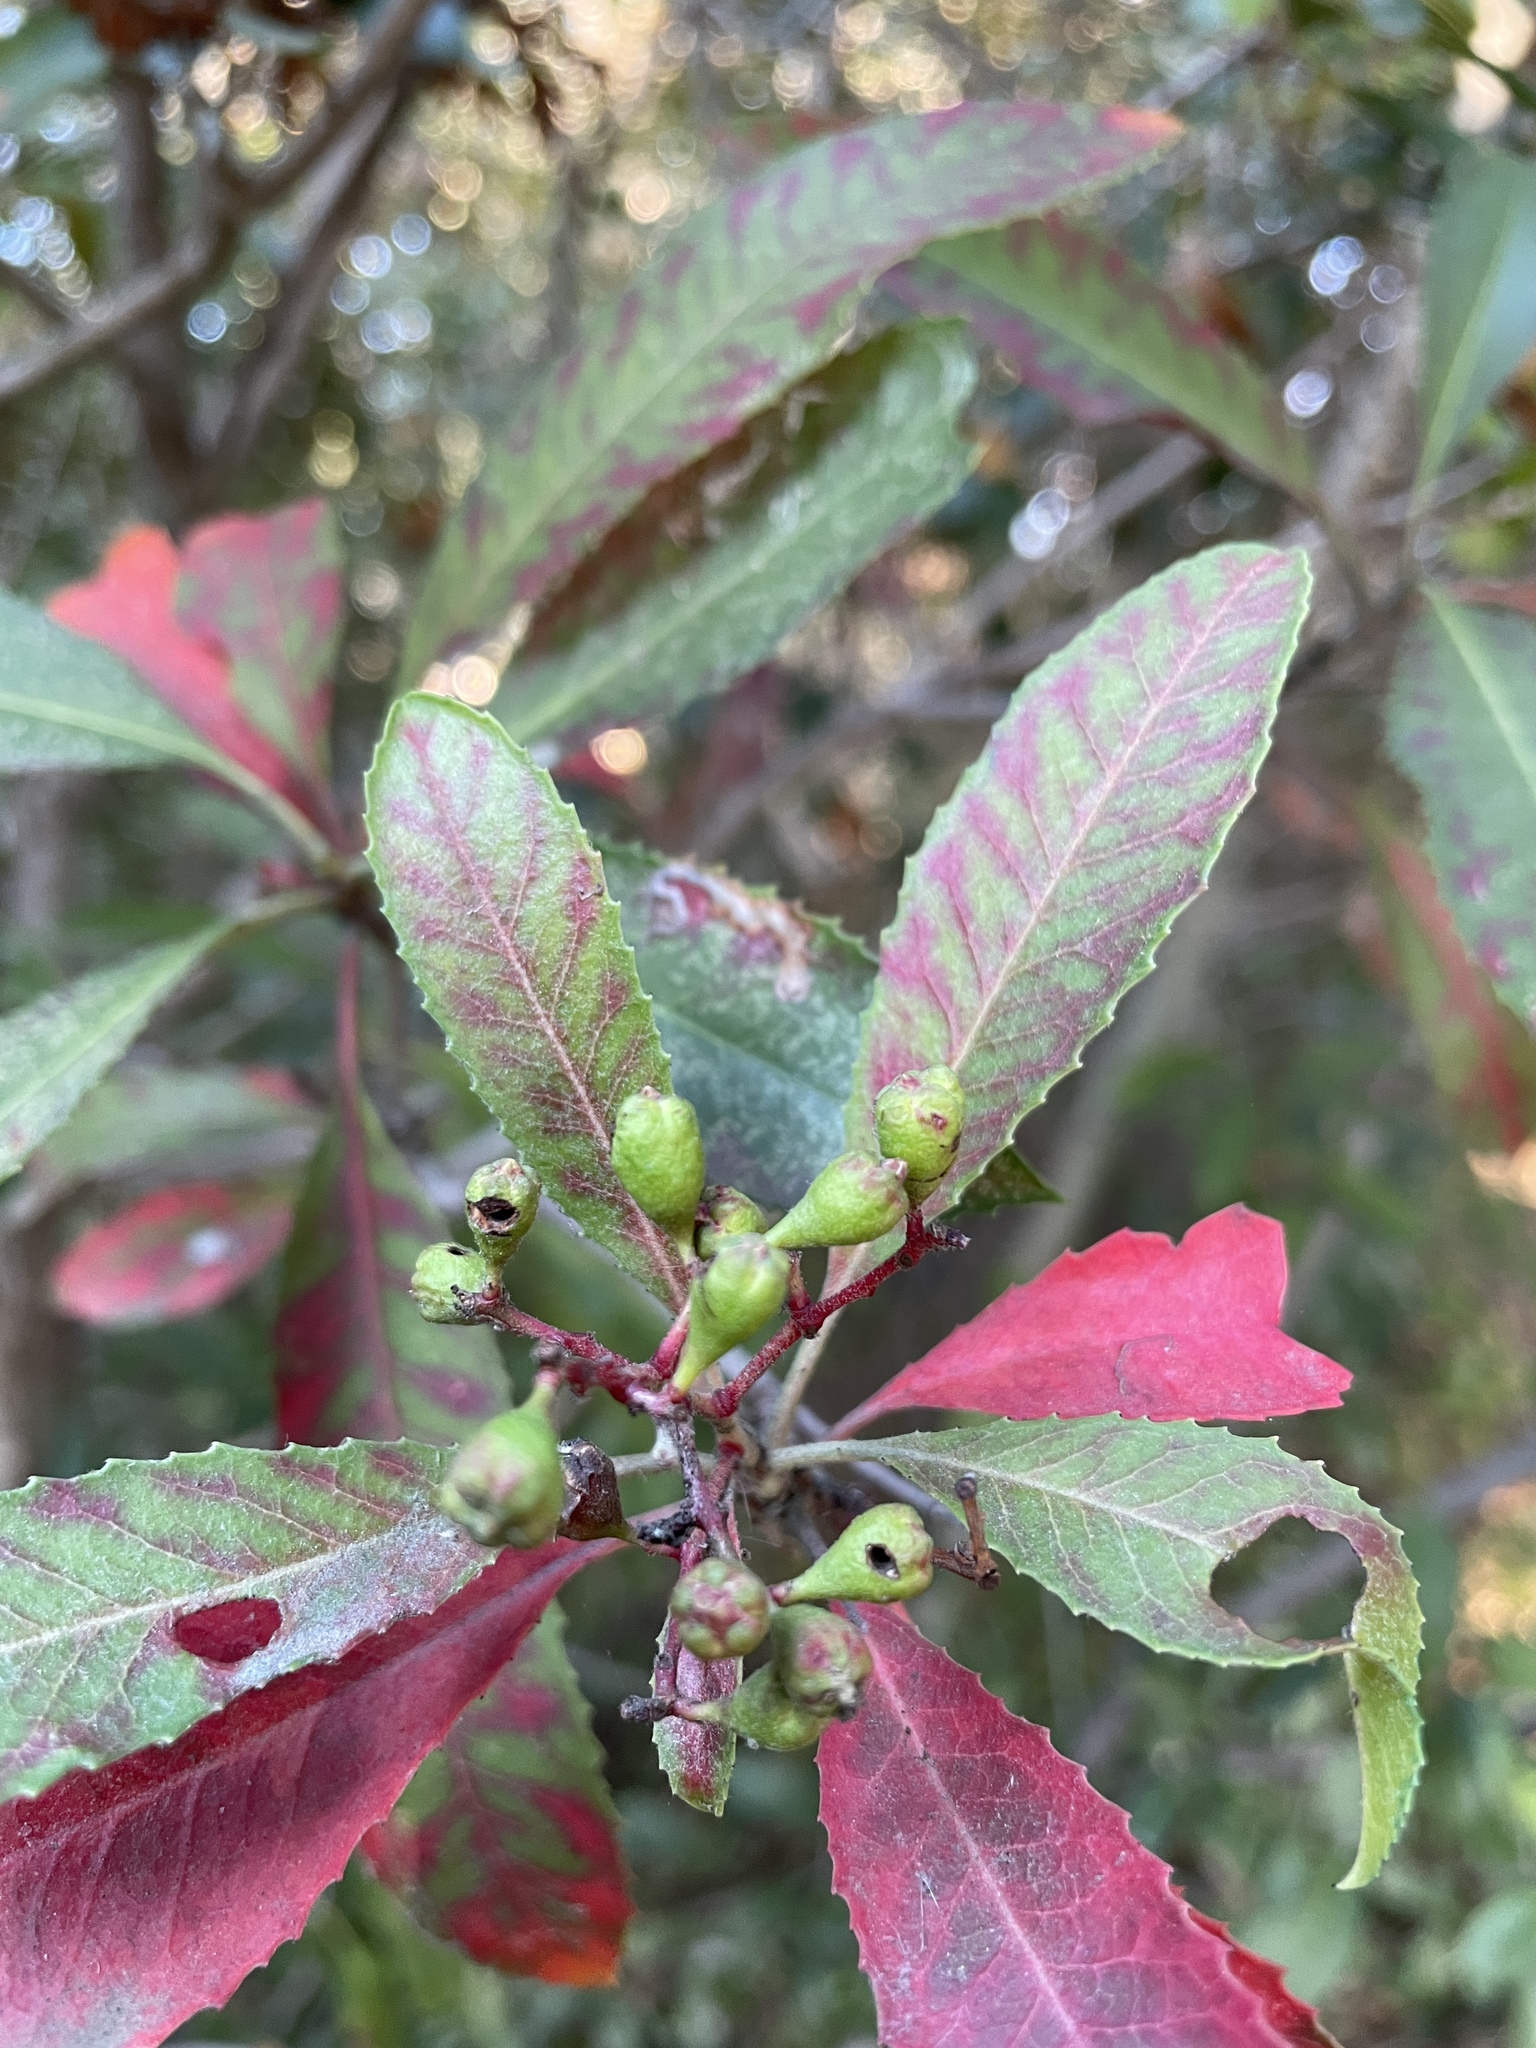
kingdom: Plantae
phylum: Tracheophyta
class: Magnoliopsida
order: Rosales
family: Rosaceae
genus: Heteromeles
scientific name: Heteromeles arbutifolia
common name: California-holly
